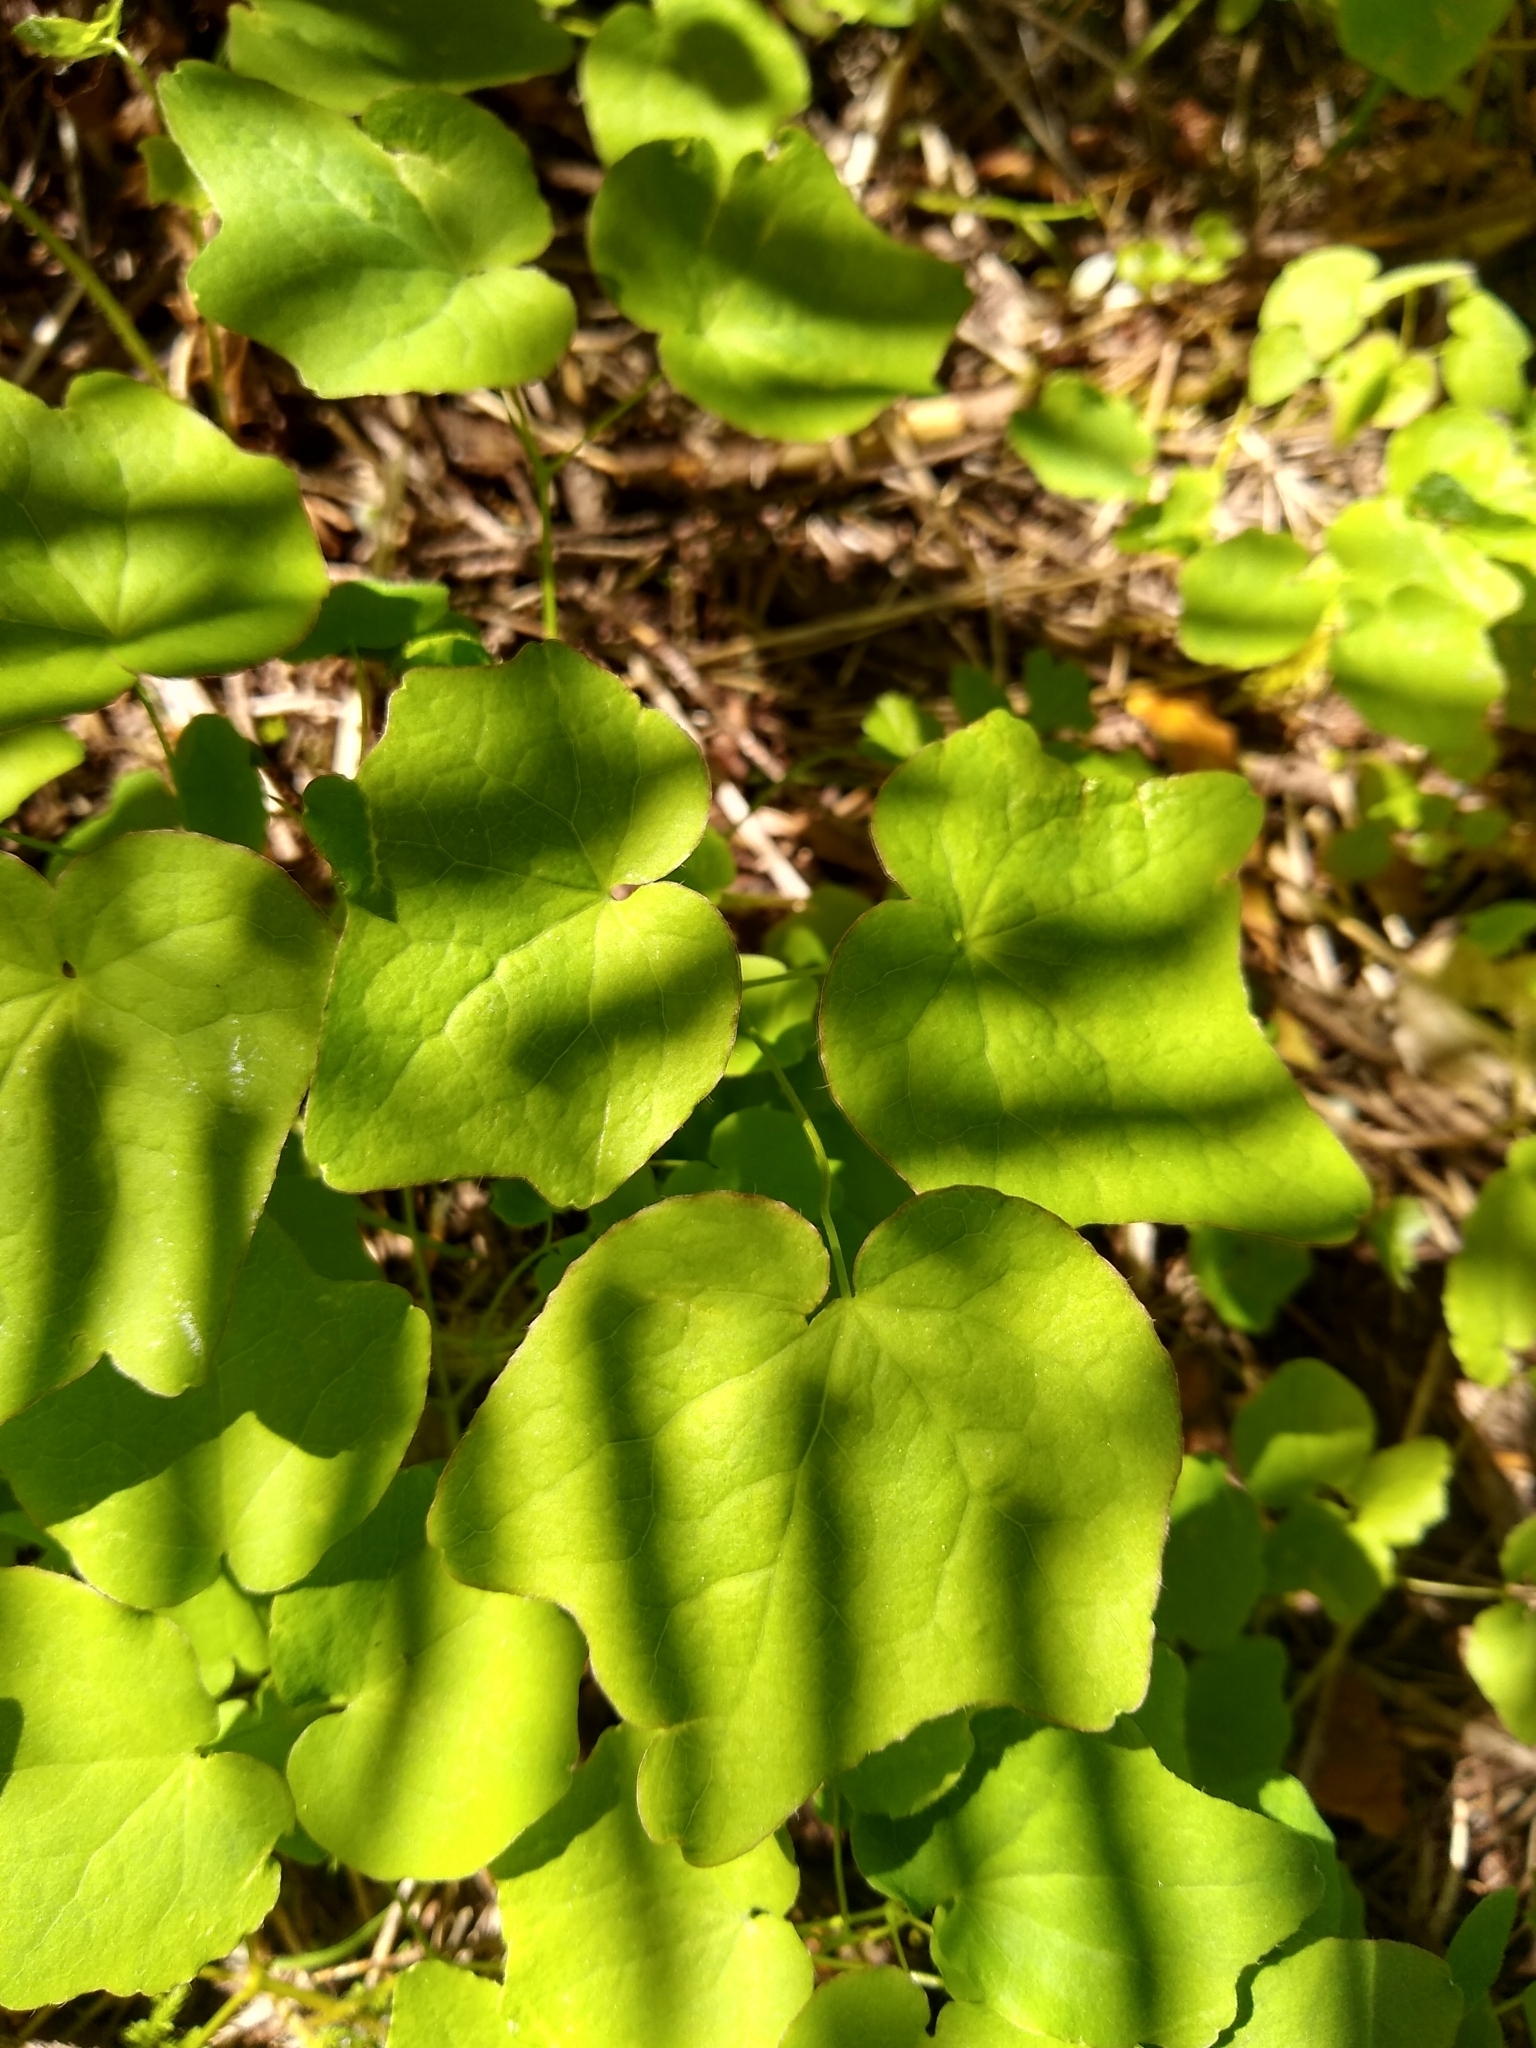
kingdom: Plantae
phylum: Tracheophyta
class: Magnoliopsida
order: Ranunculales
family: Berberidaceae
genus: Vancouveria
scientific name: Vancouveria hexandra
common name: Northern inside-out-flower
